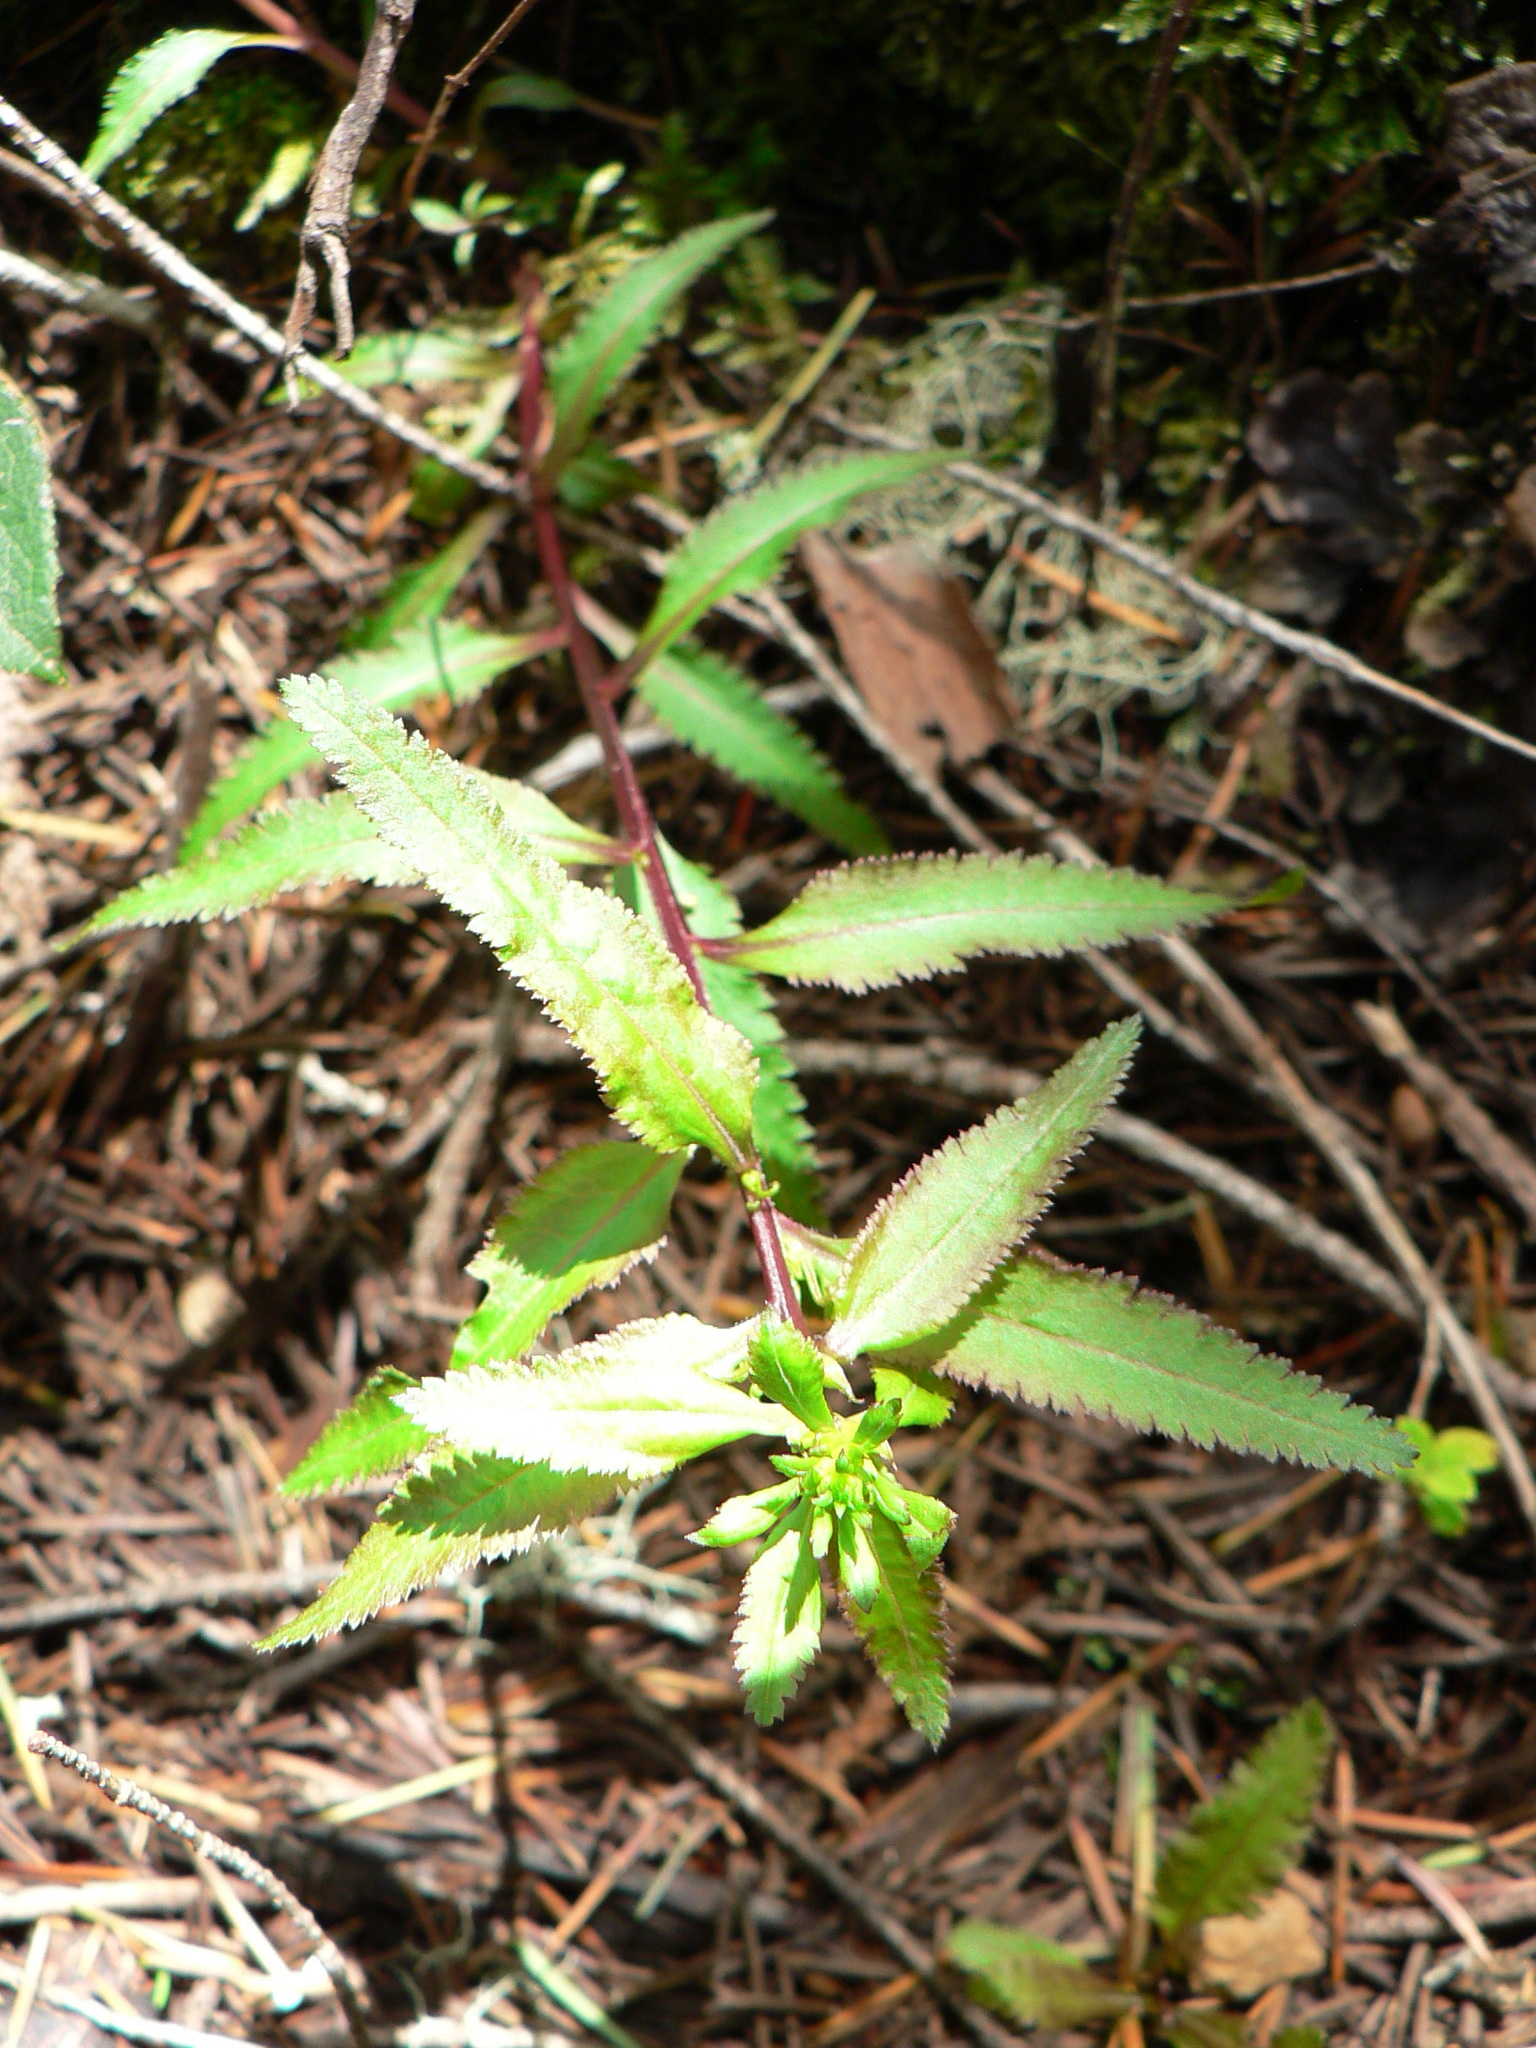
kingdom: Plantae
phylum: Tracheophyta
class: Magnoliopsida
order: Lamiales
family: Orobanchaceae
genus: Pedicularis
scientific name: Pedicularis racemosa
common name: Leafy lousewort
